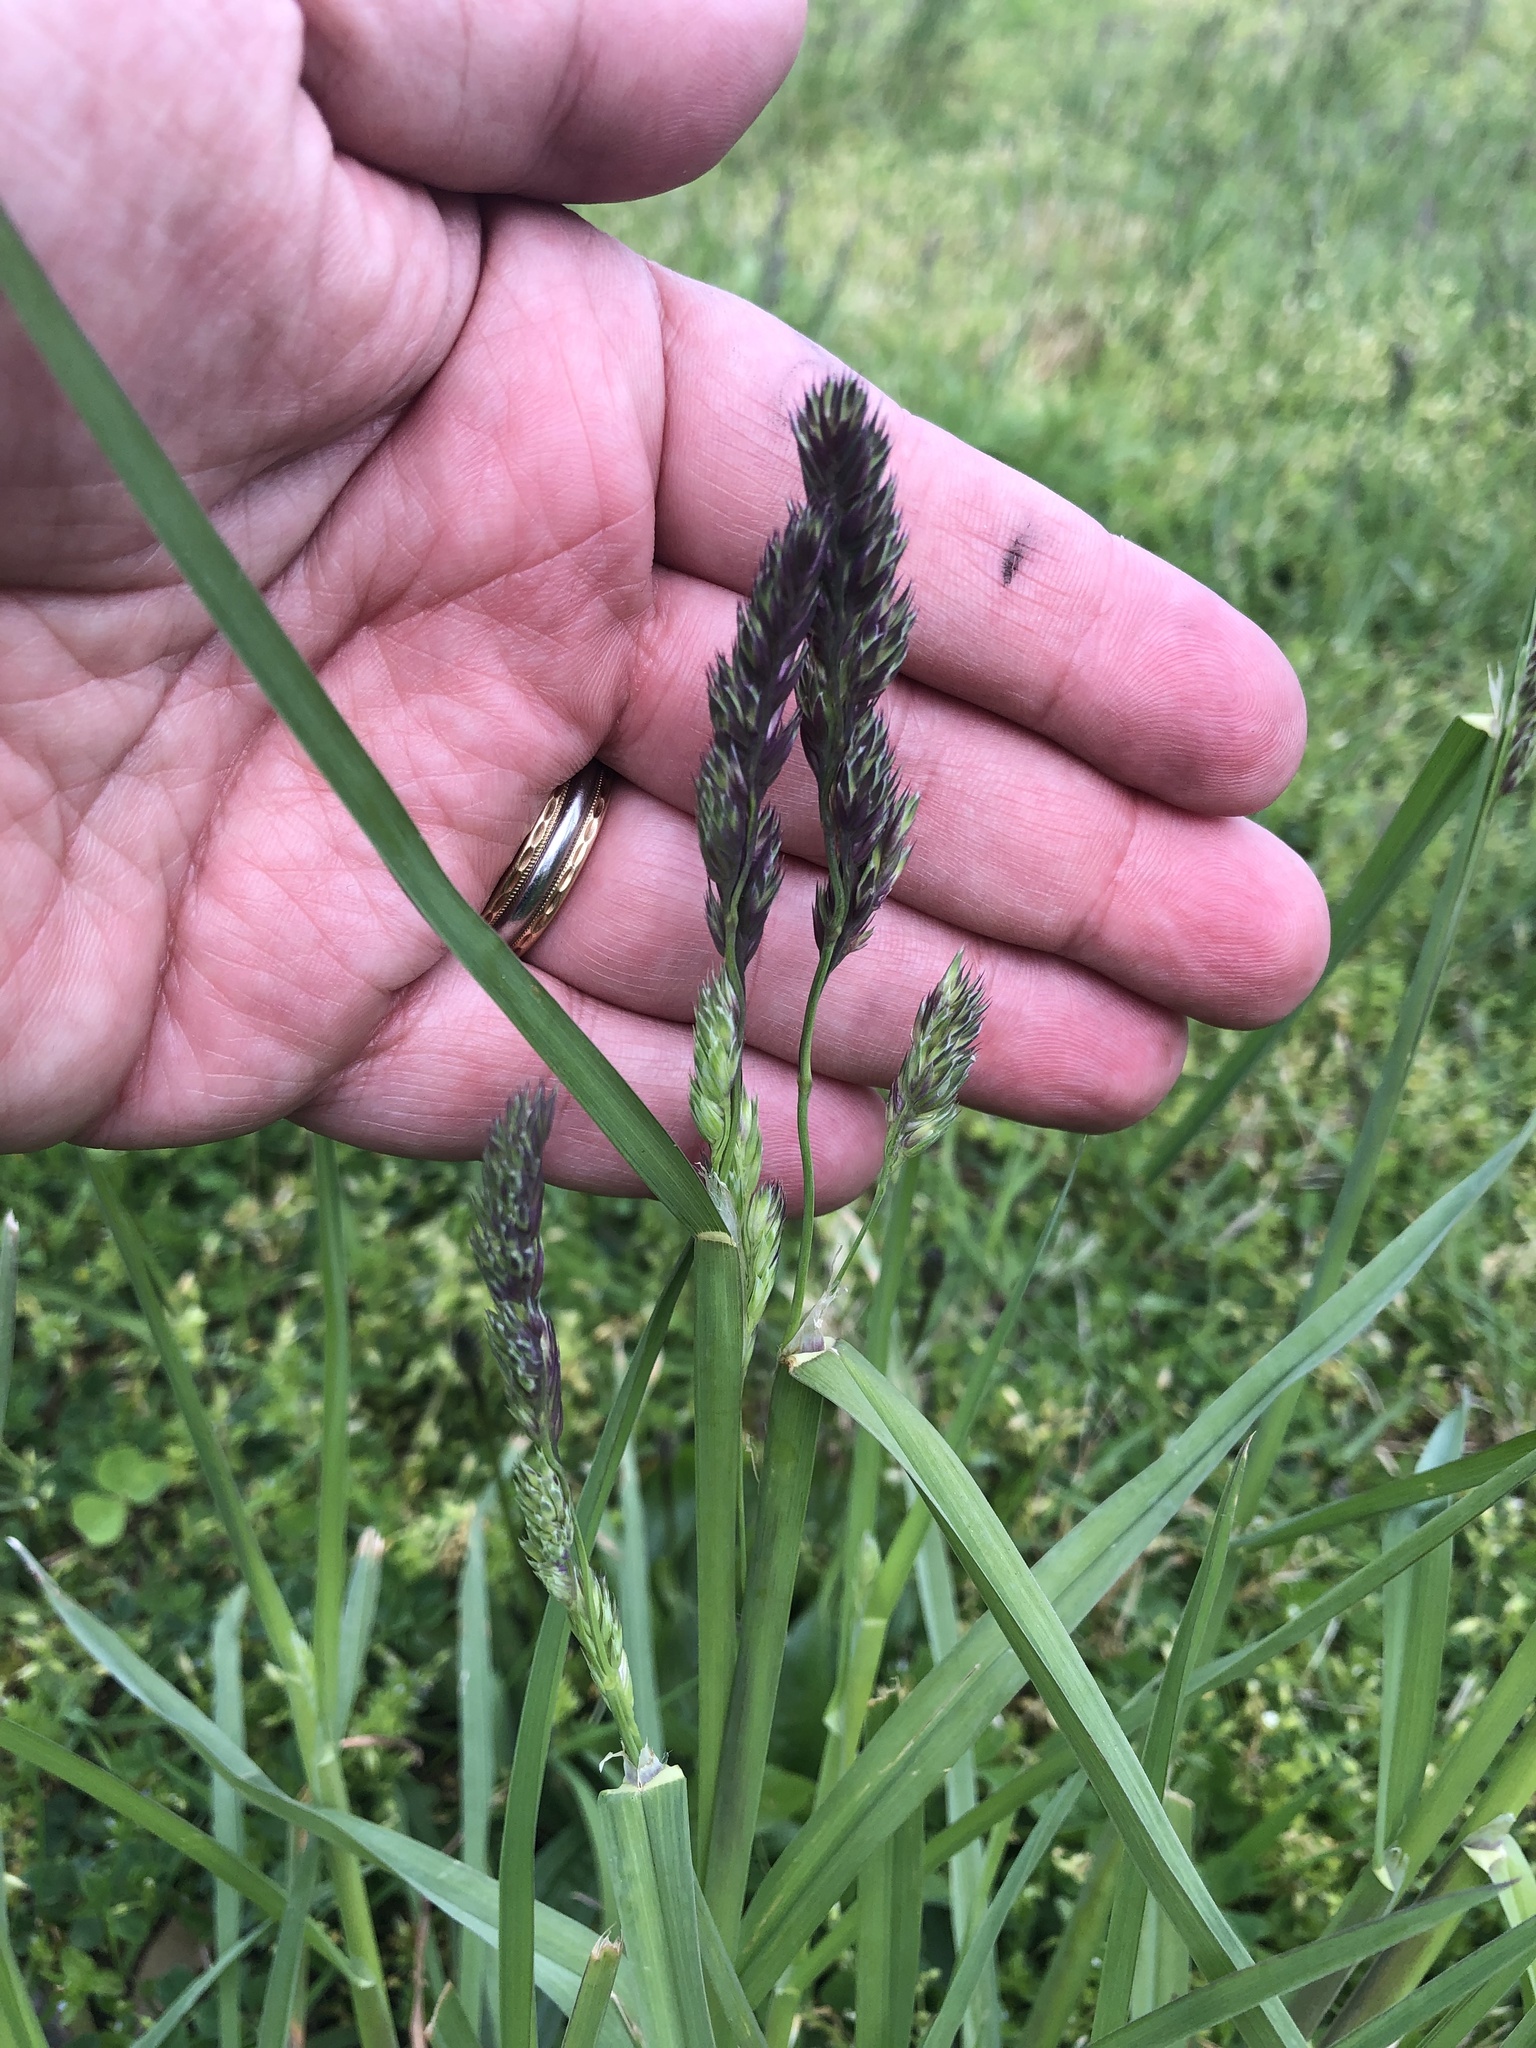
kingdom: Plantae
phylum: Tracheophyta
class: Liliopsida
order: Poales
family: Poaceae
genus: Dactylis
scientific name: Dactylis glomerata
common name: Orchardgrass
